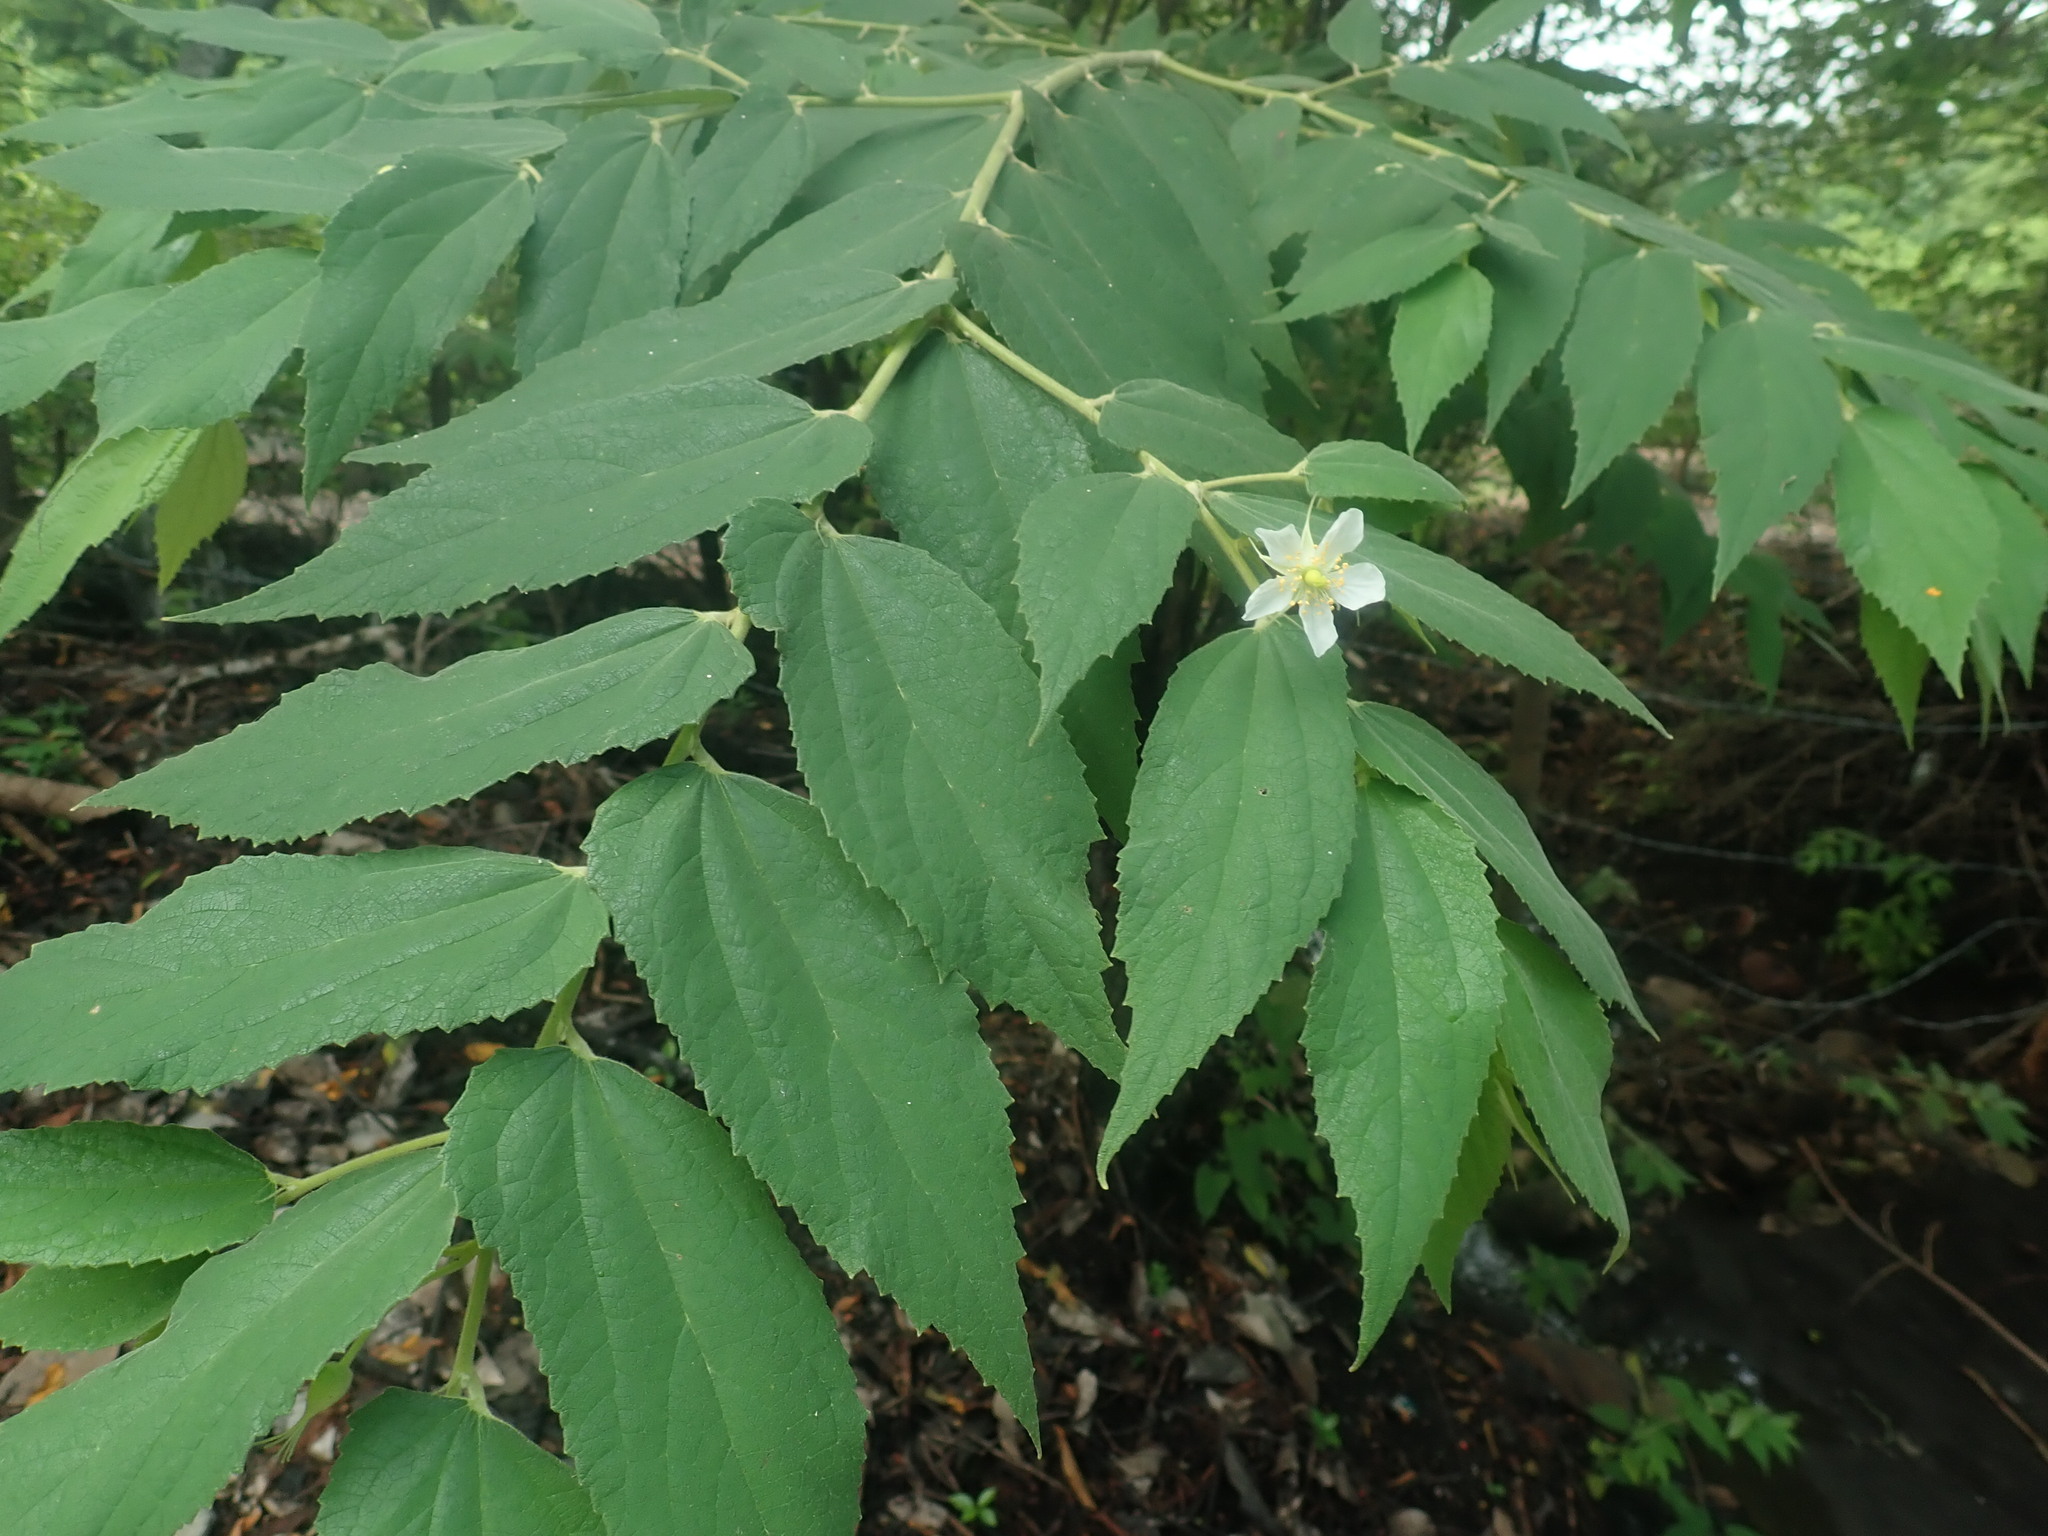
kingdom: Plantae
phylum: Tracheophyta
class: Magnoliopsida
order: Malvales
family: Muntingiaceae
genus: Muntingia
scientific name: Muntingia calabura
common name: Strawberrytree
